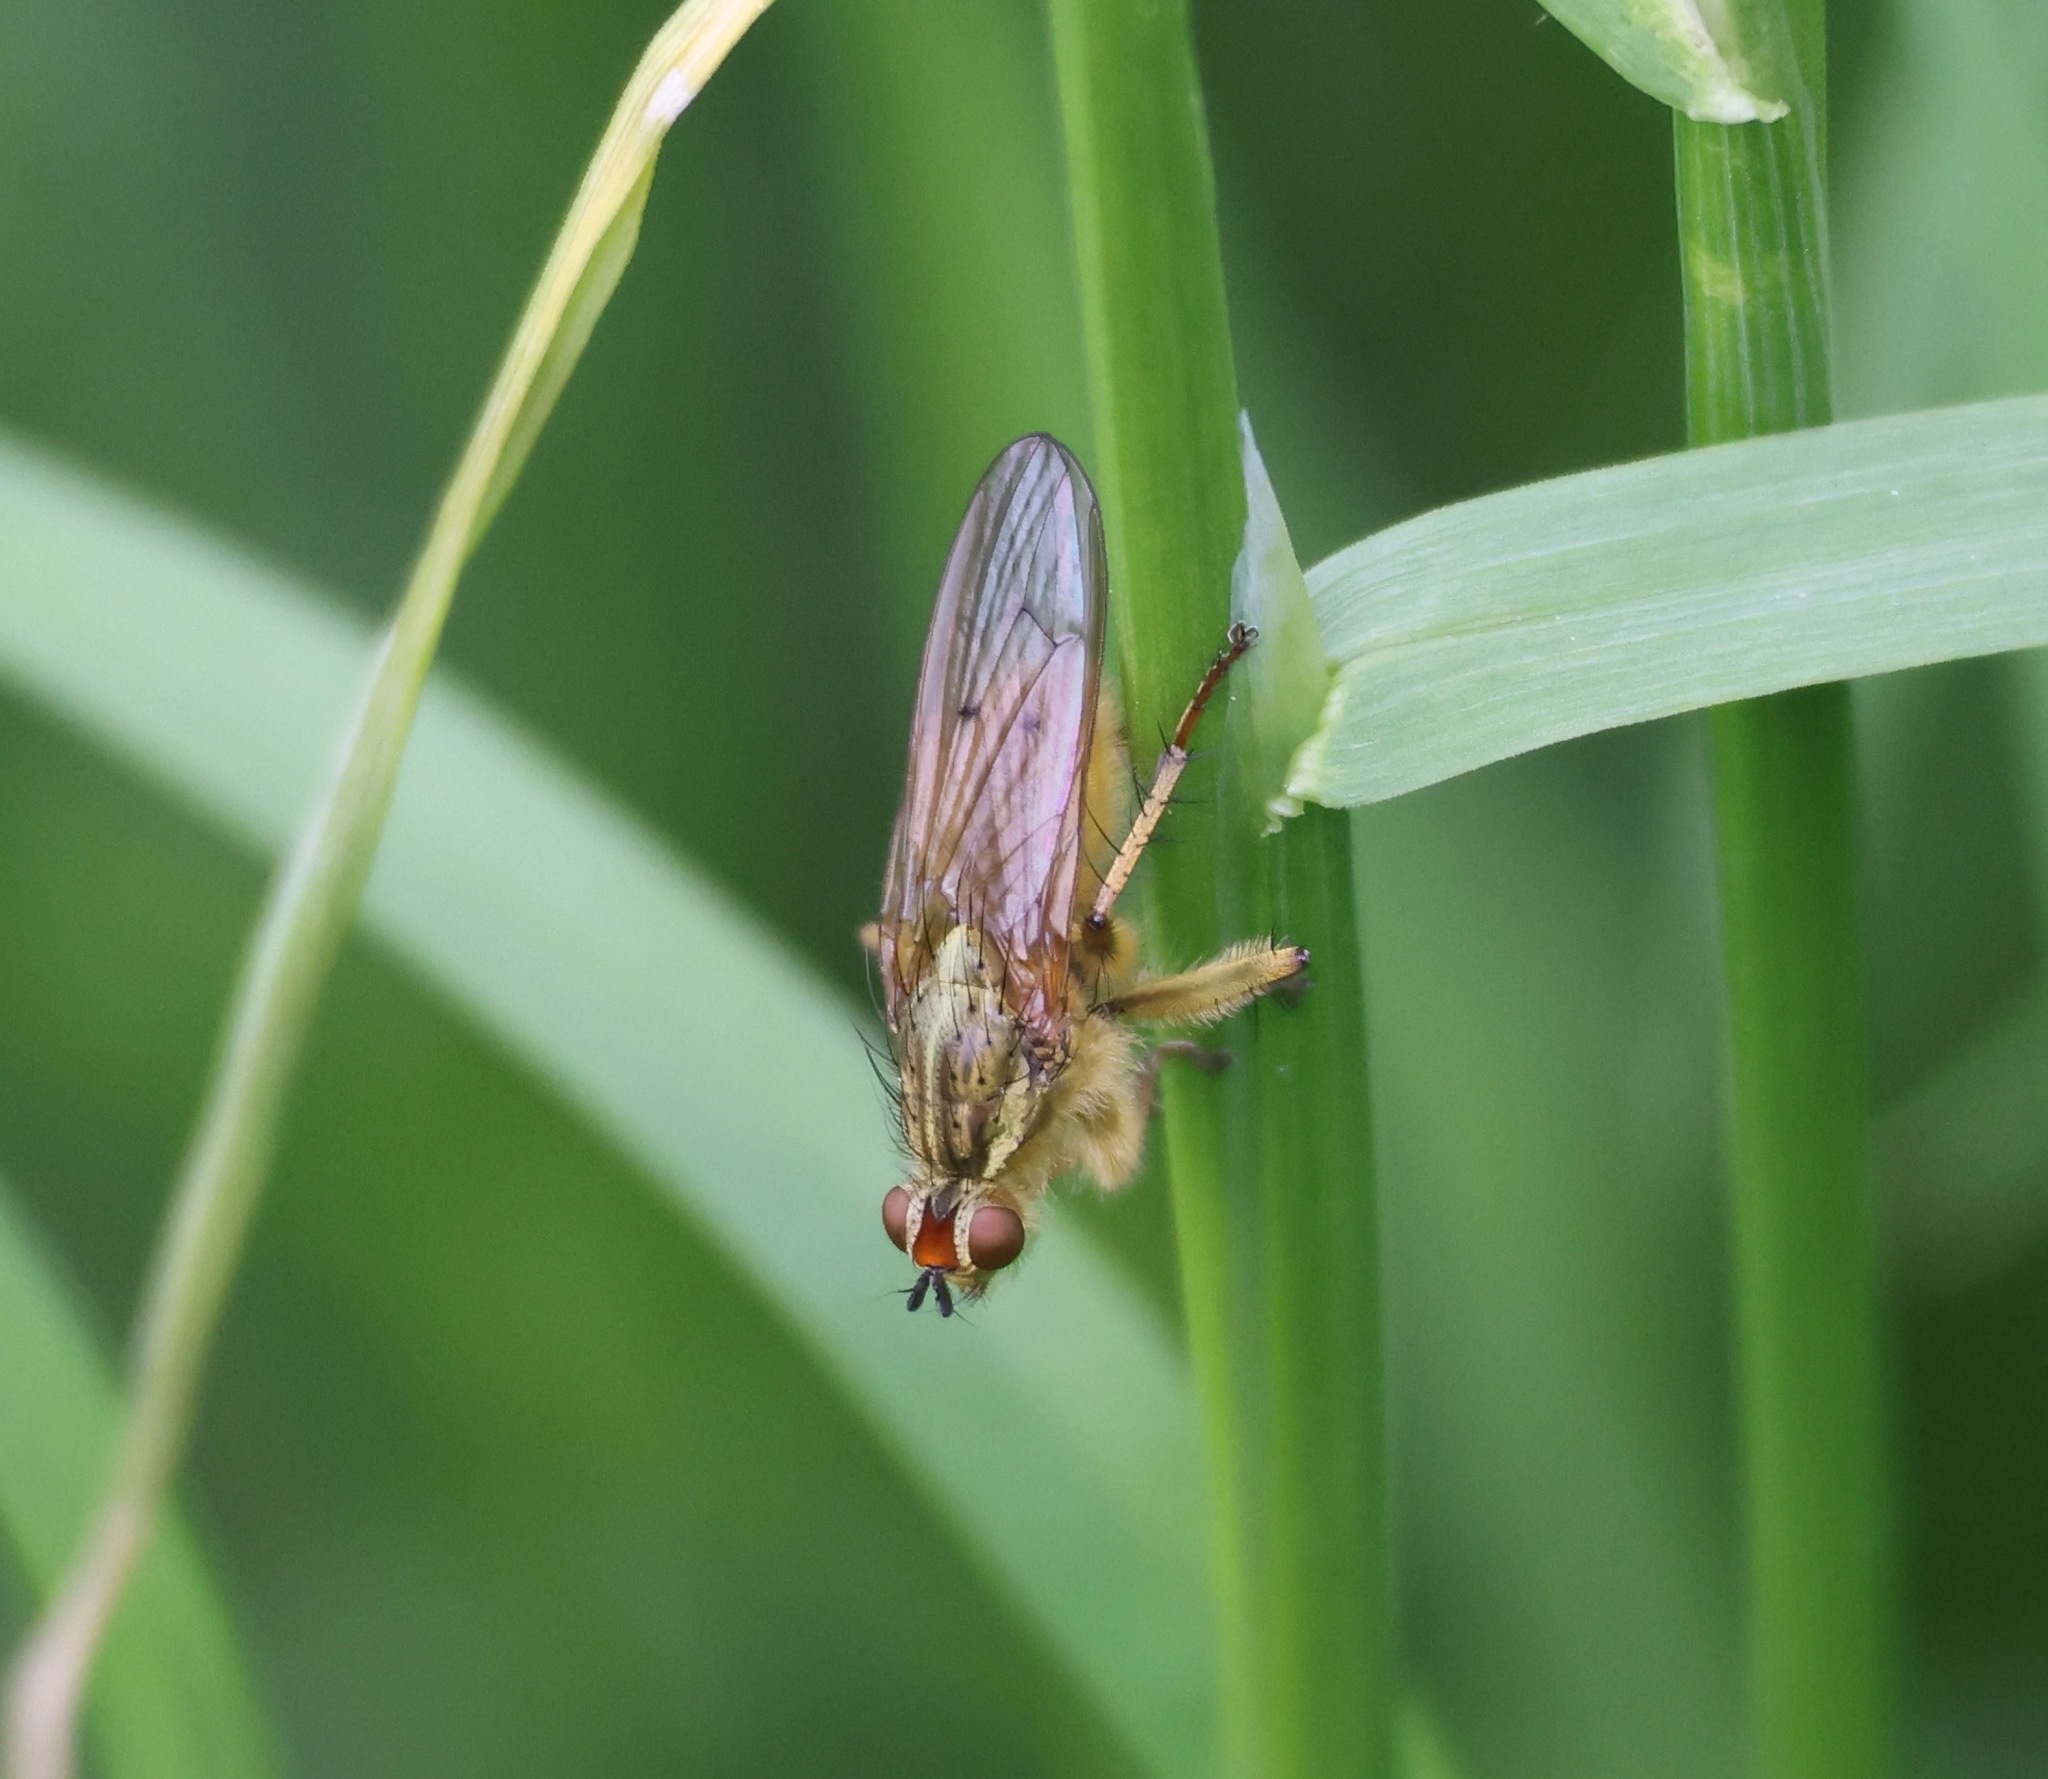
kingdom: Animalia
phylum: Arthropoda
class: Insecta
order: Diptera
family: Scathophagidae
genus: Scathophaga
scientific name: Scathophaga stercoraria
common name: Yellow dung fly
